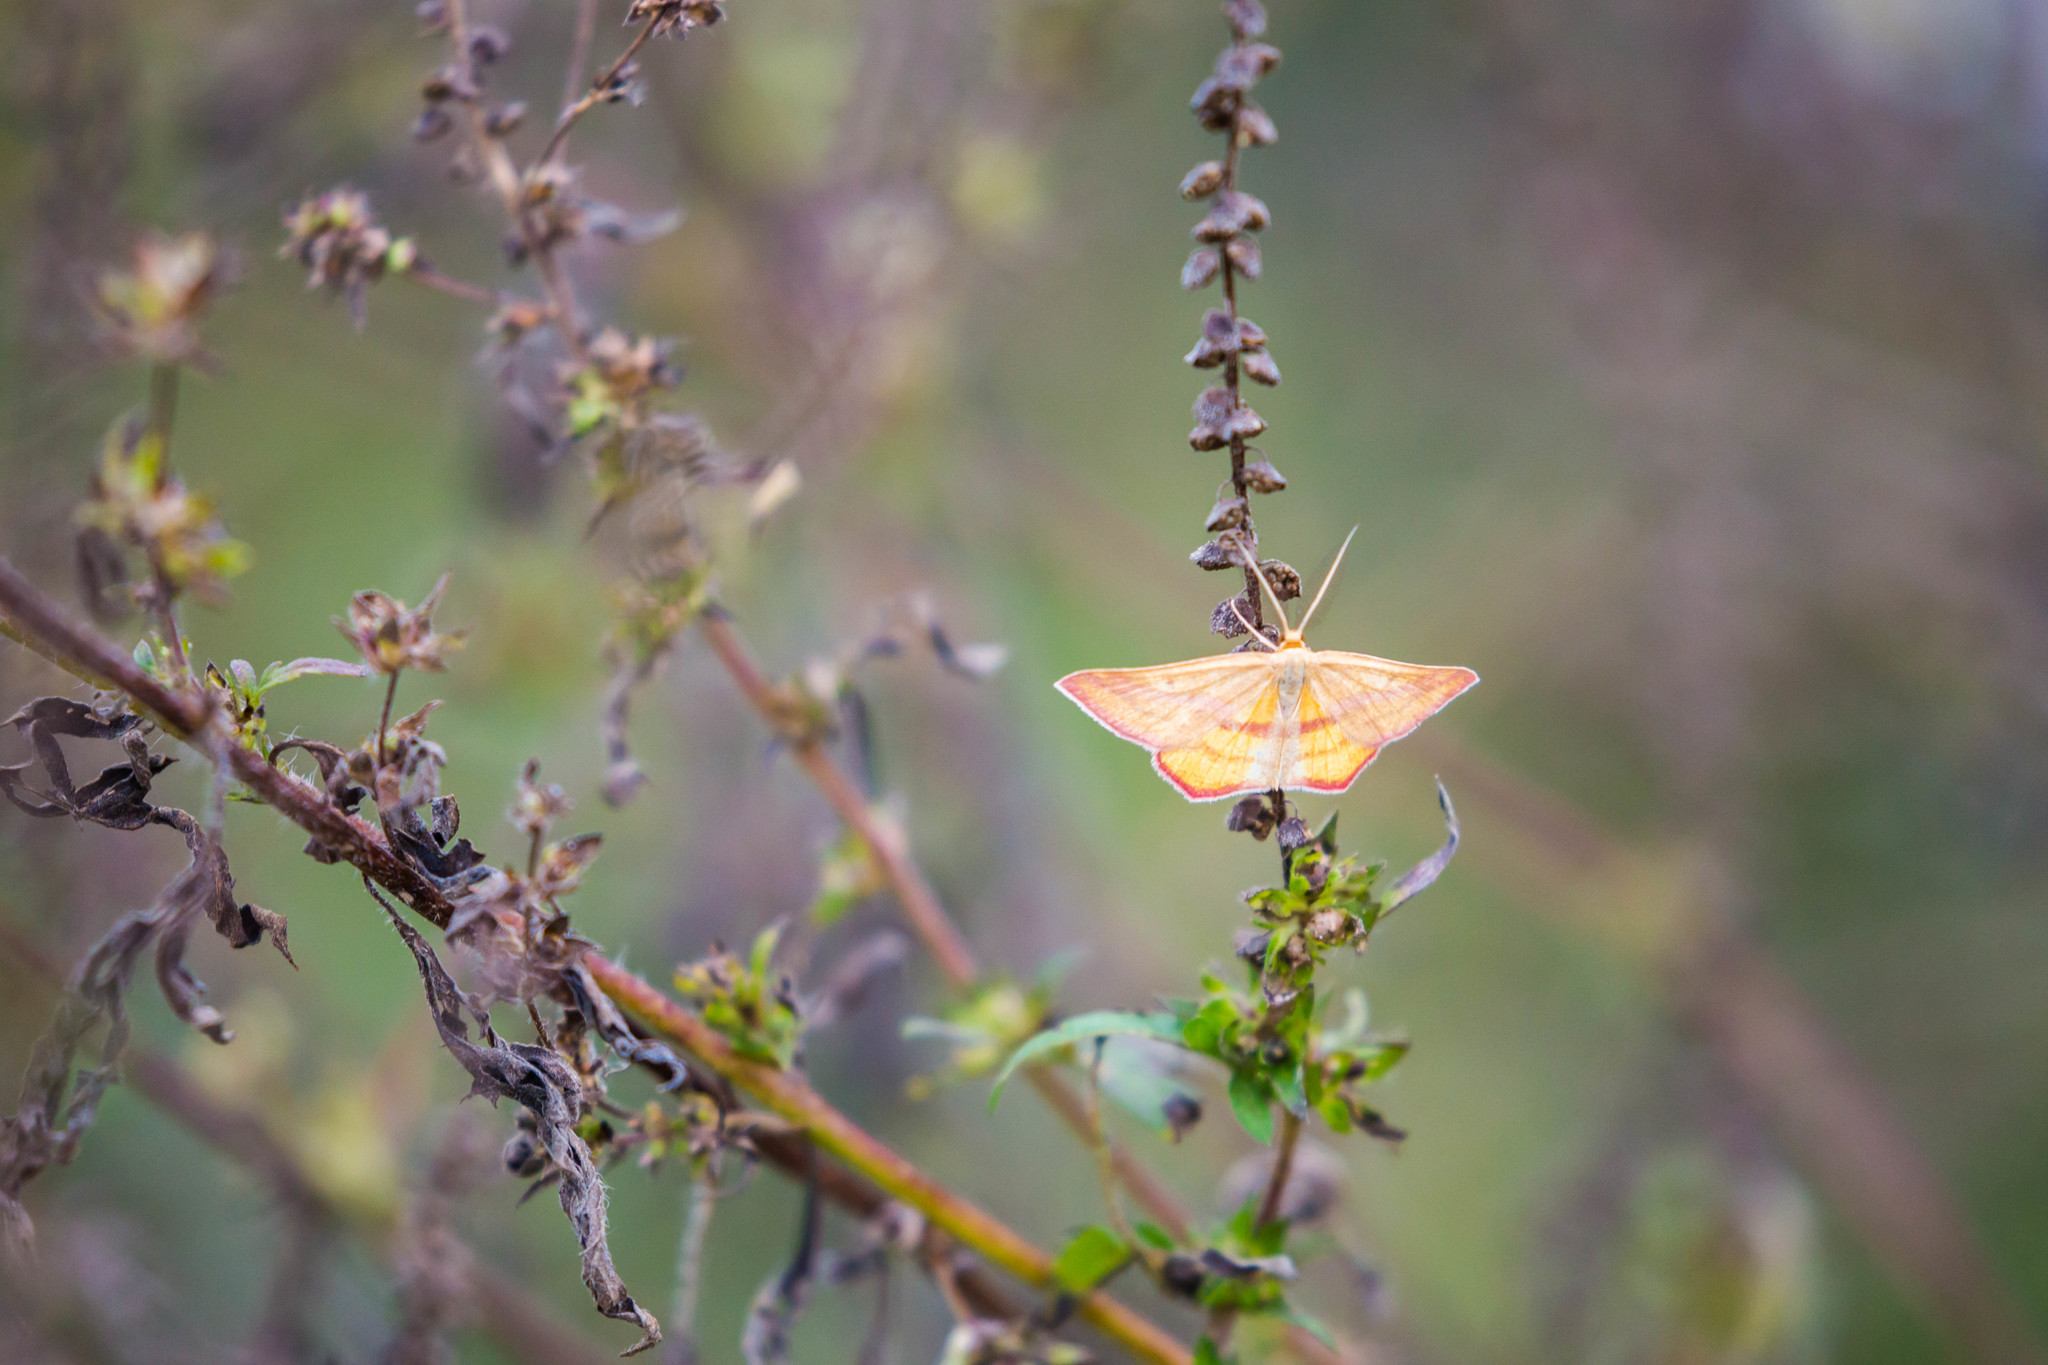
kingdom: Animalia
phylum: Arthropoda
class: Insecta
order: Lepidoptera
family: Geometridae
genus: Haematopis
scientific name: Haematopis grataria
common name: Chickweed geometer
